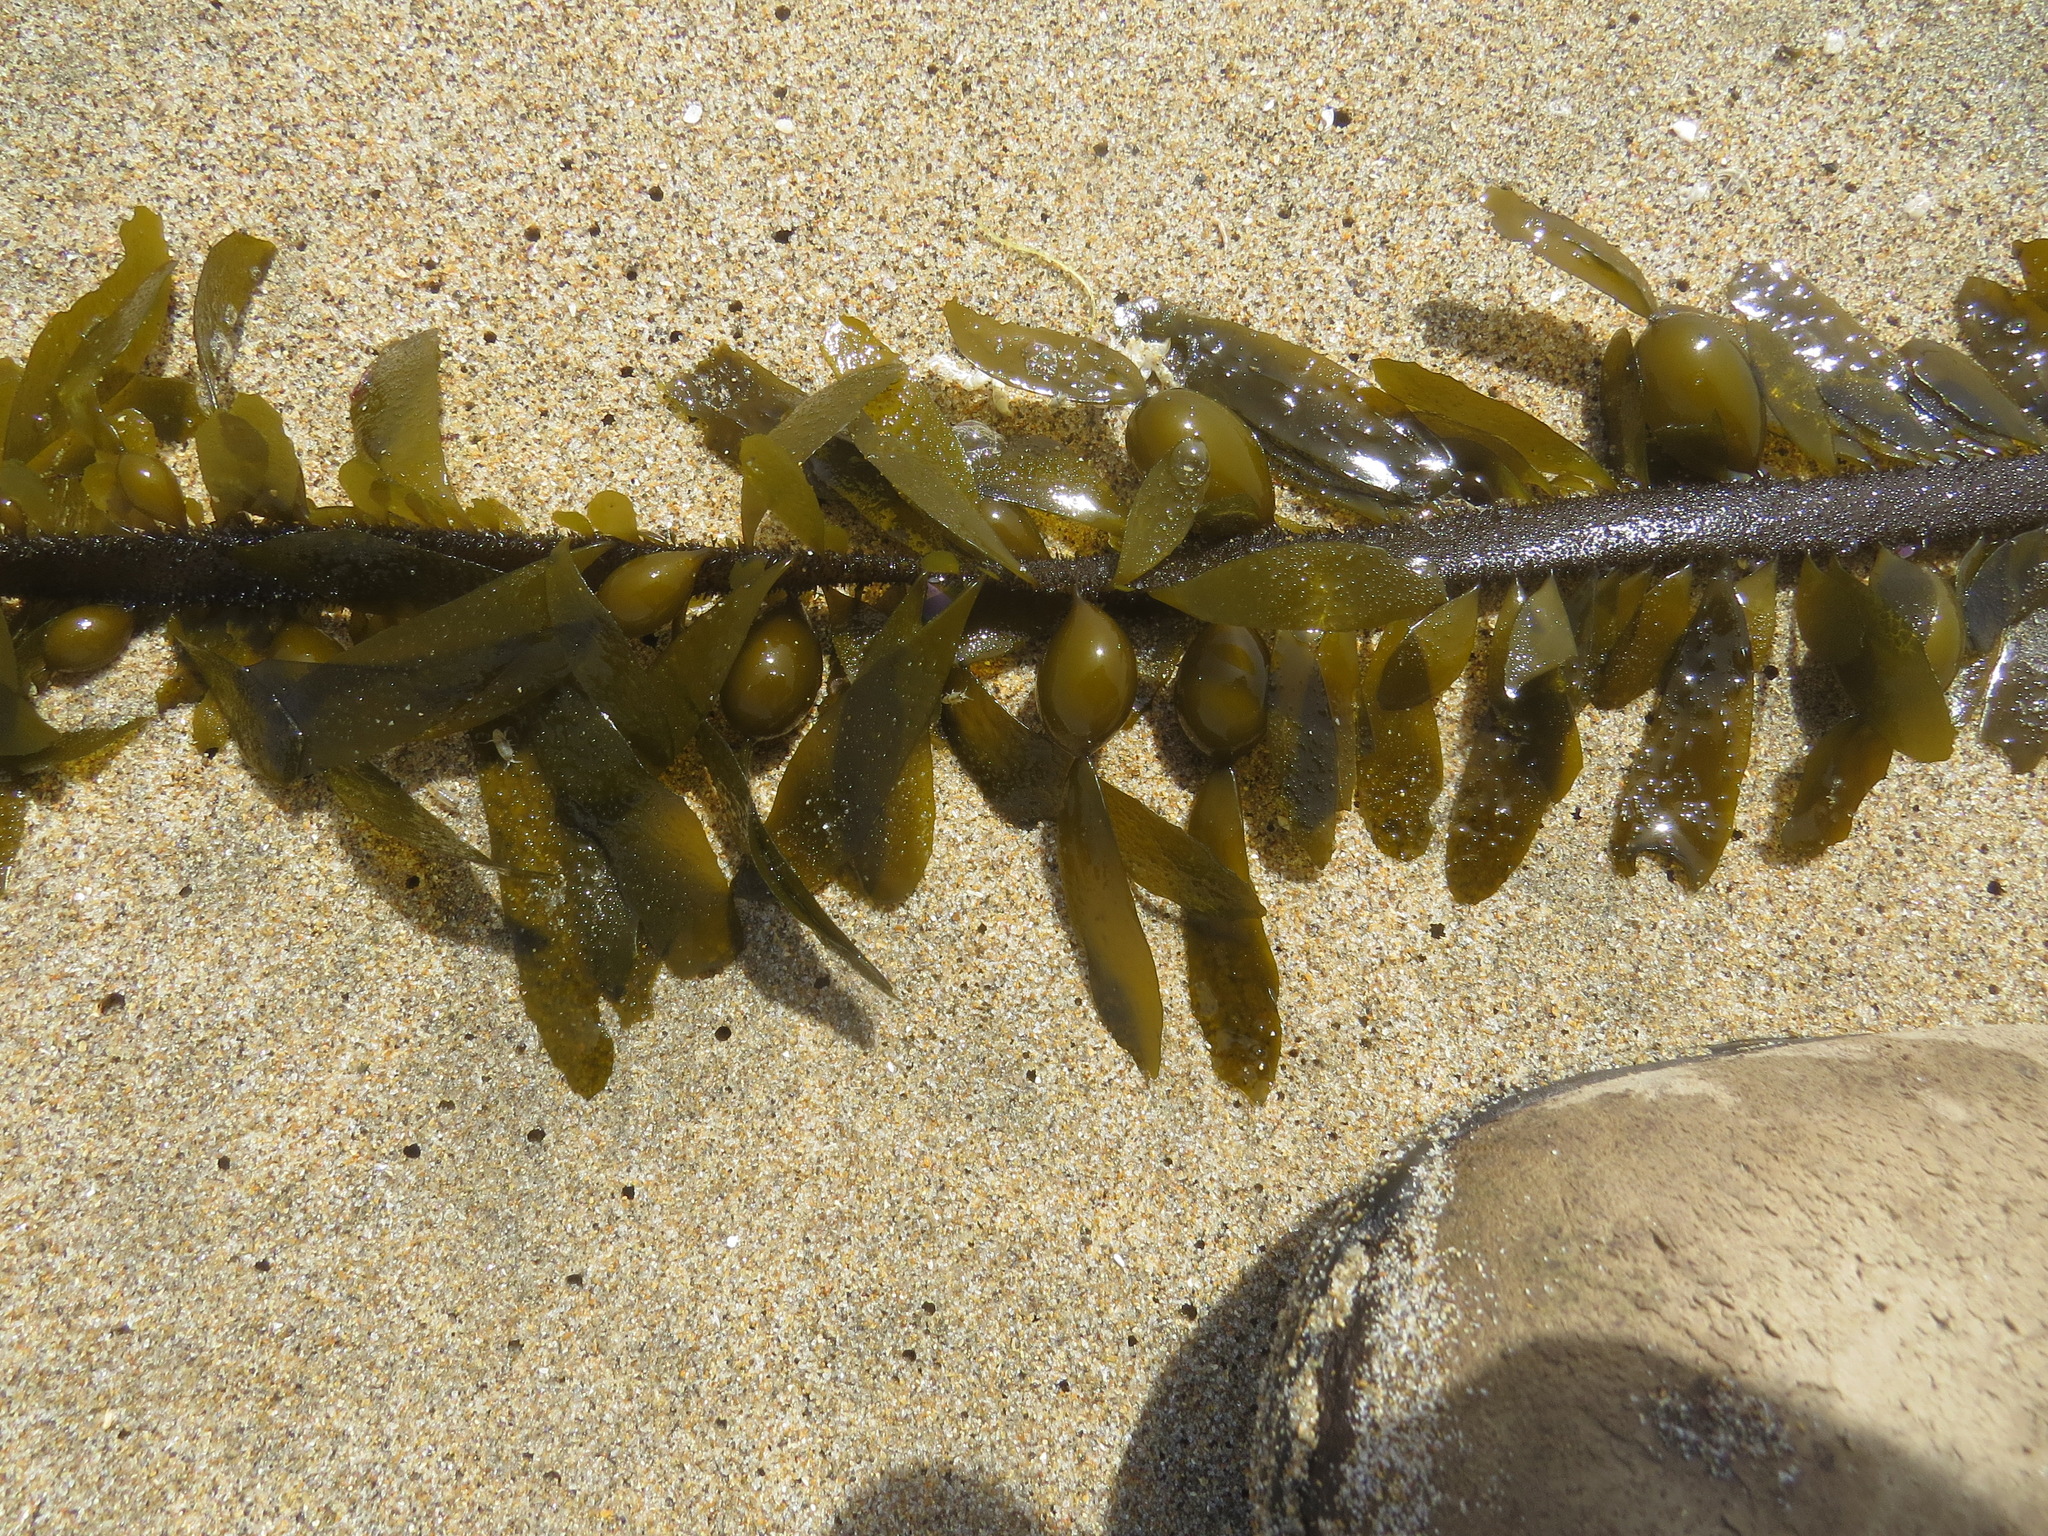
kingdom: Chromista
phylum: Ochrophyta
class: Phaeophyceae
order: Laminariales
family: Lessoniaceae
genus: Egregia
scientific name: Egregia menziesii
